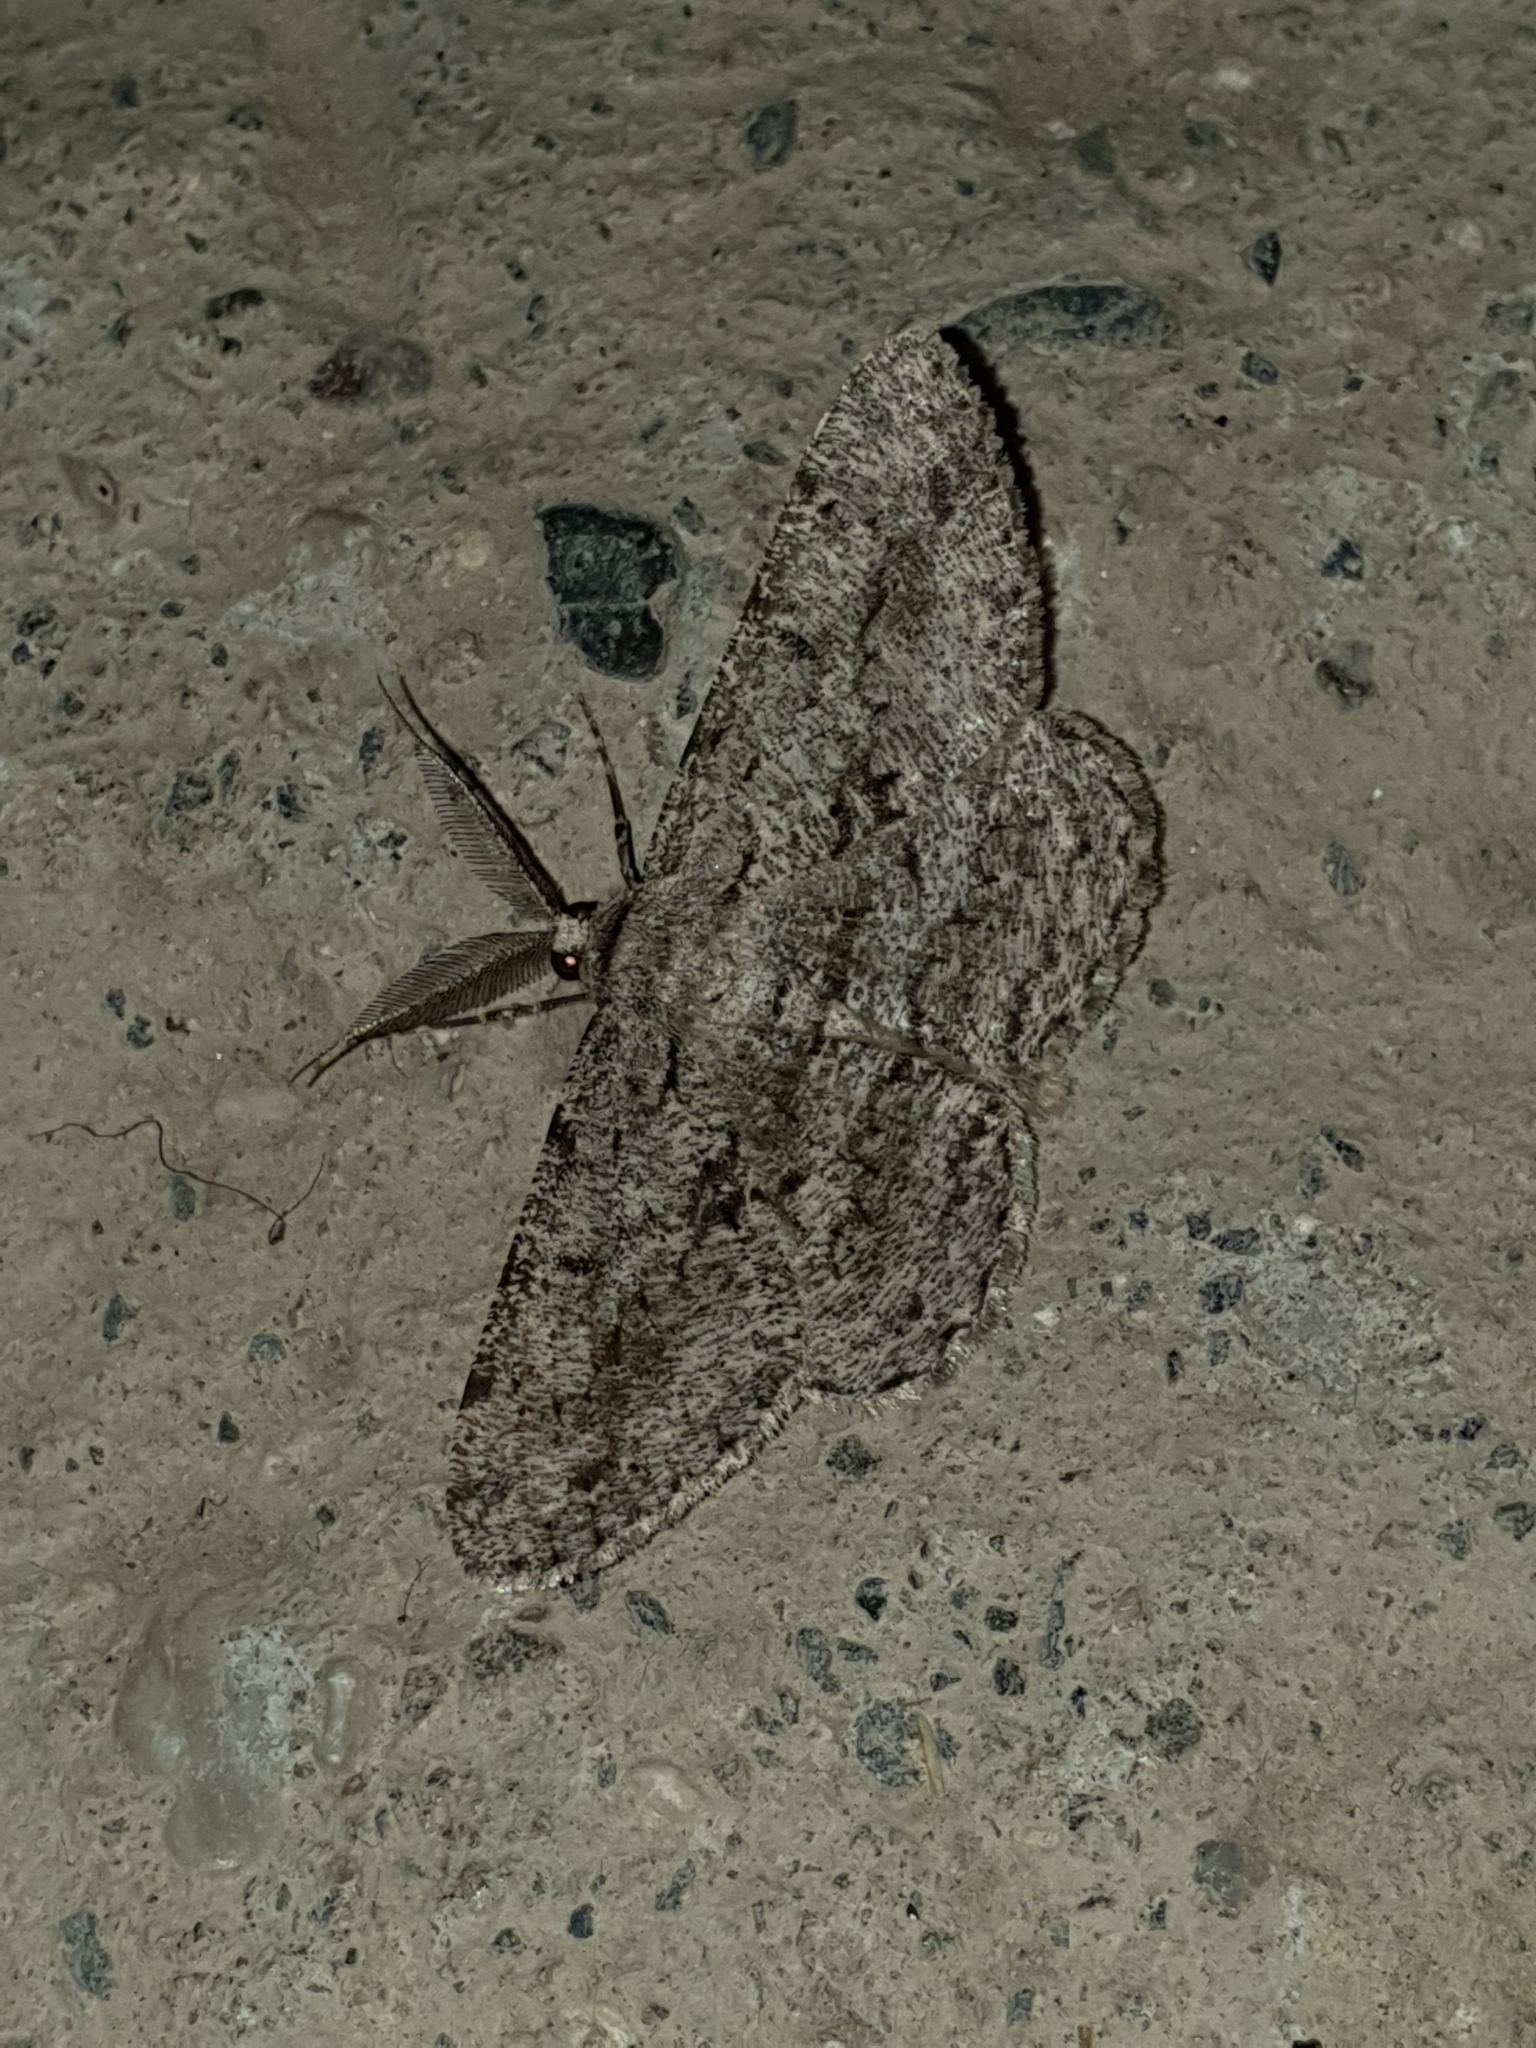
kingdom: Animalia
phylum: Arthropoda
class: Insecta
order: Lepidoptera
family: Geometridae
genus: Hypomecis
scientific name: Hypomecis roboraria
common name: Great oak beauty
